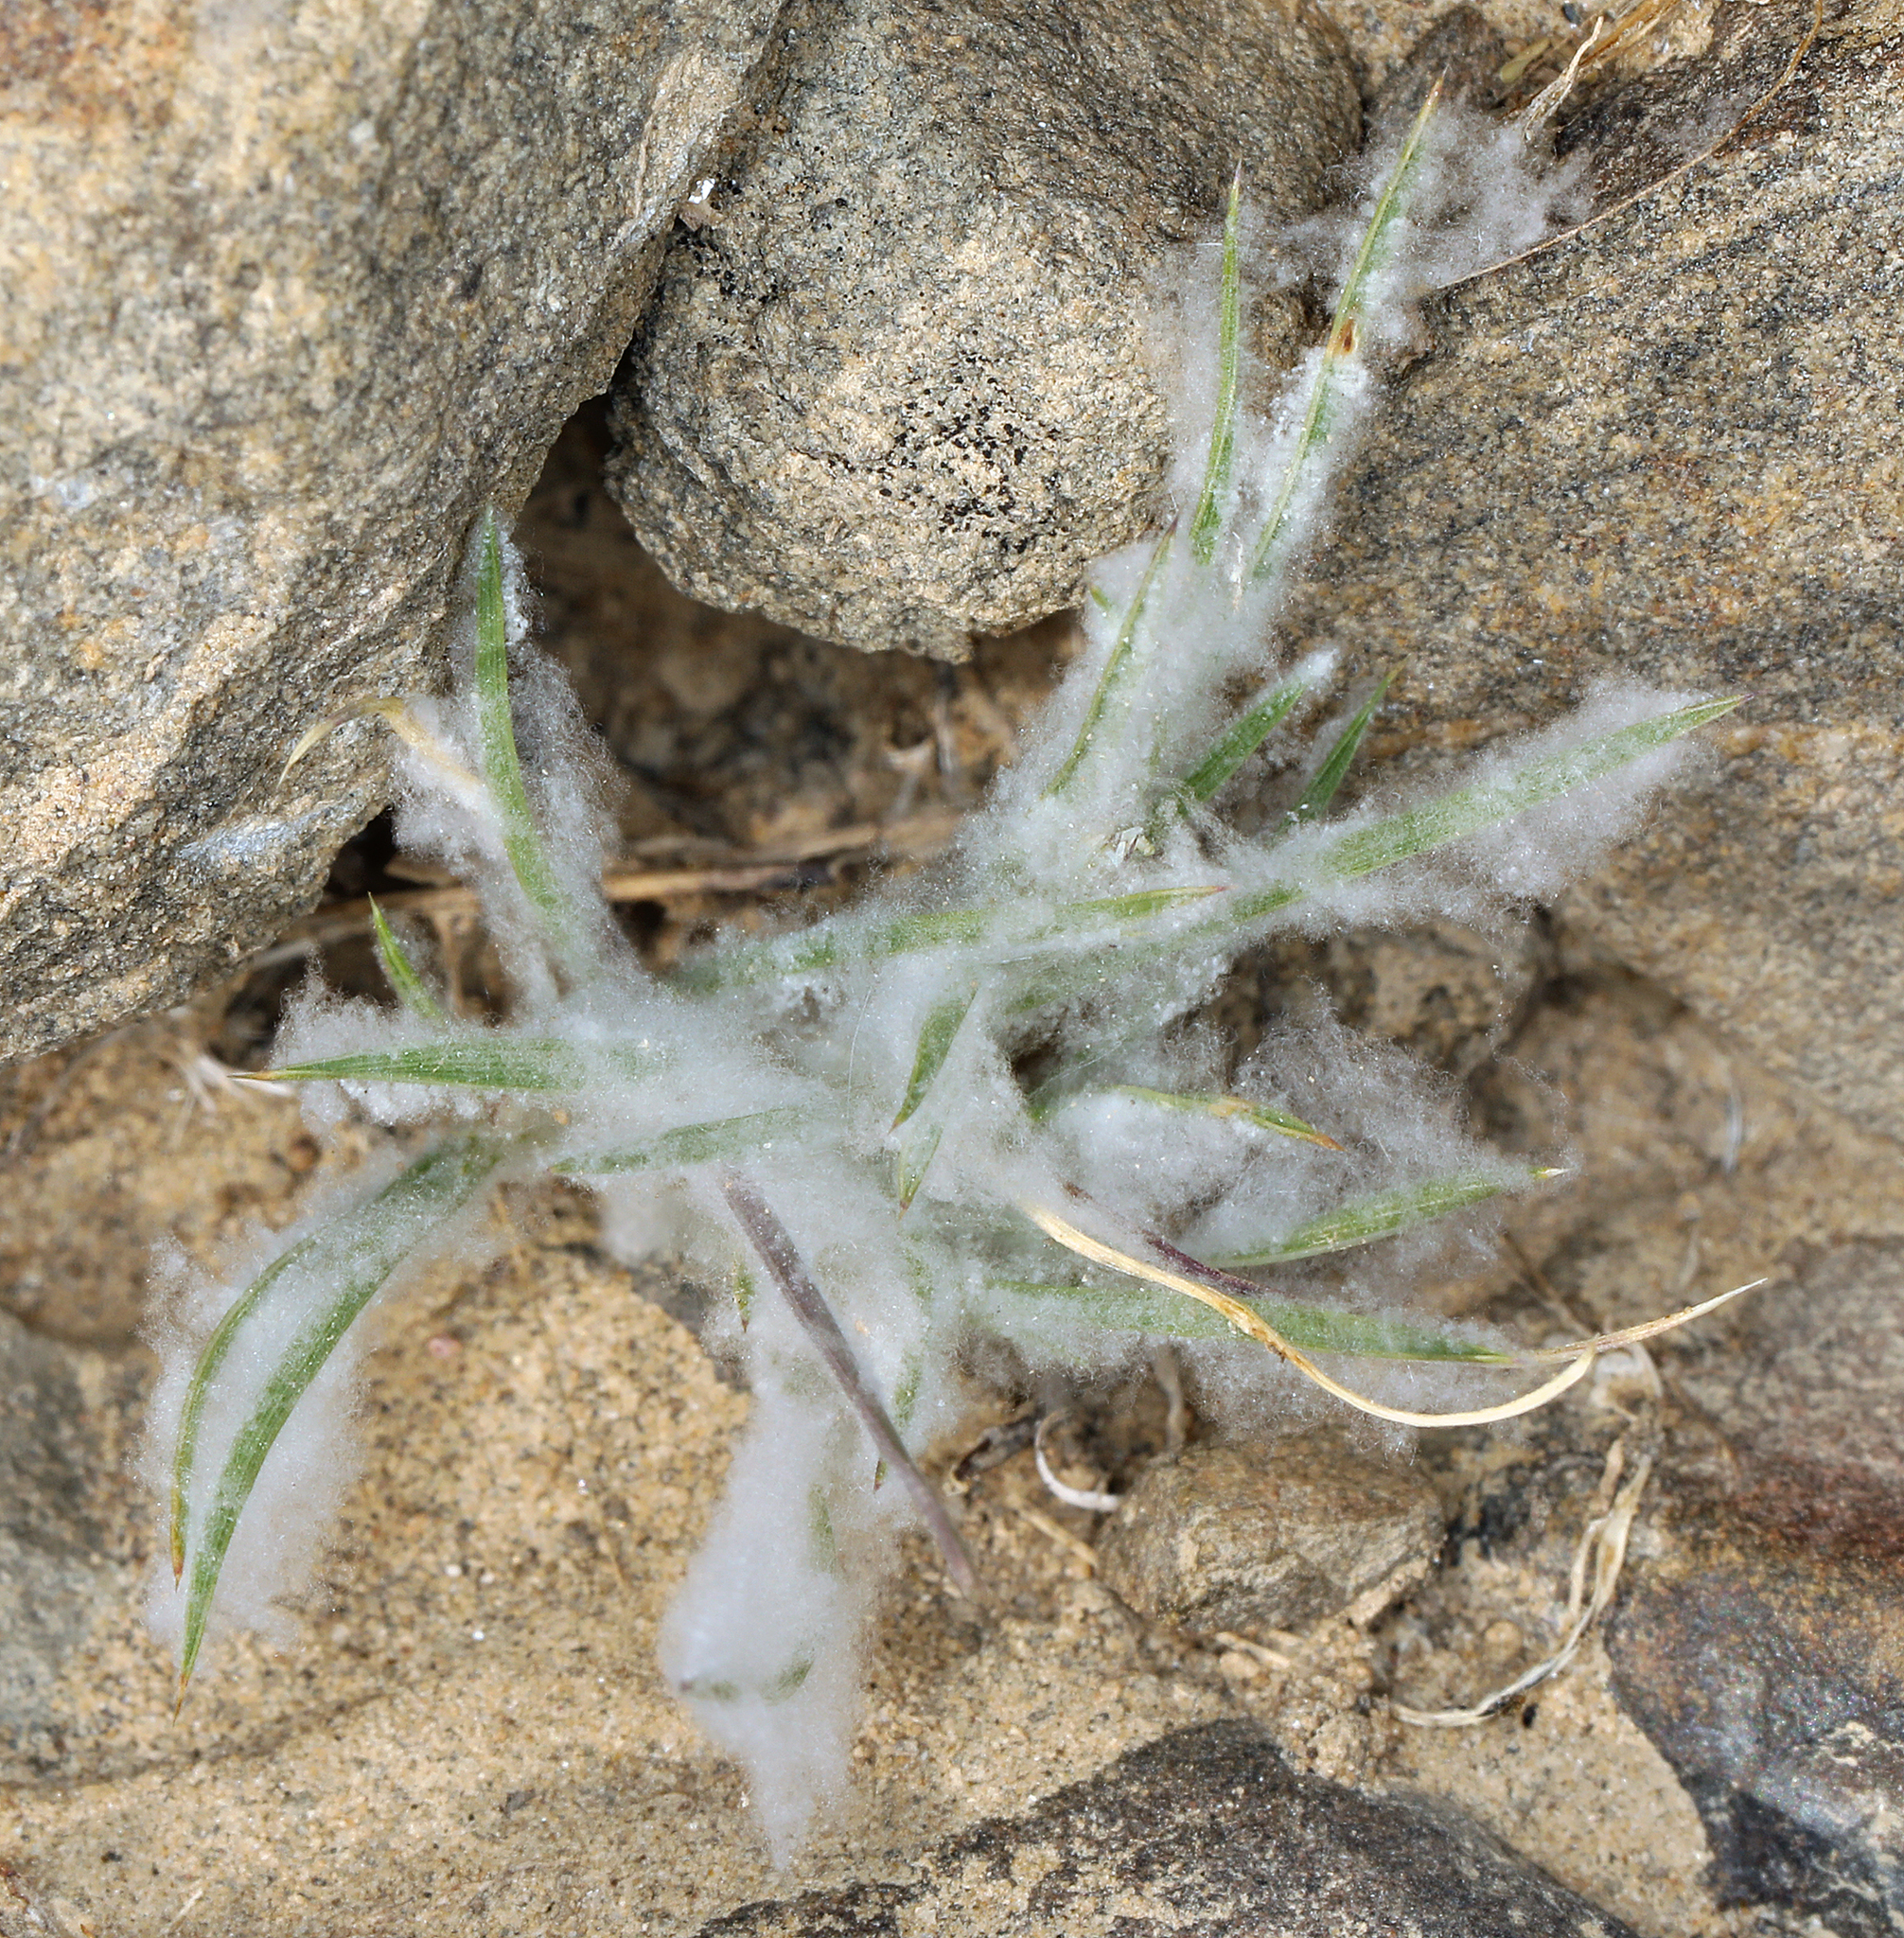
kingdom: Plantae
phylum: Tracheophyta
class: Liliopsida
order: Poales
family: Poaceae
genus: Dasyochloa
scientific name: Dasyochloa pulchella
